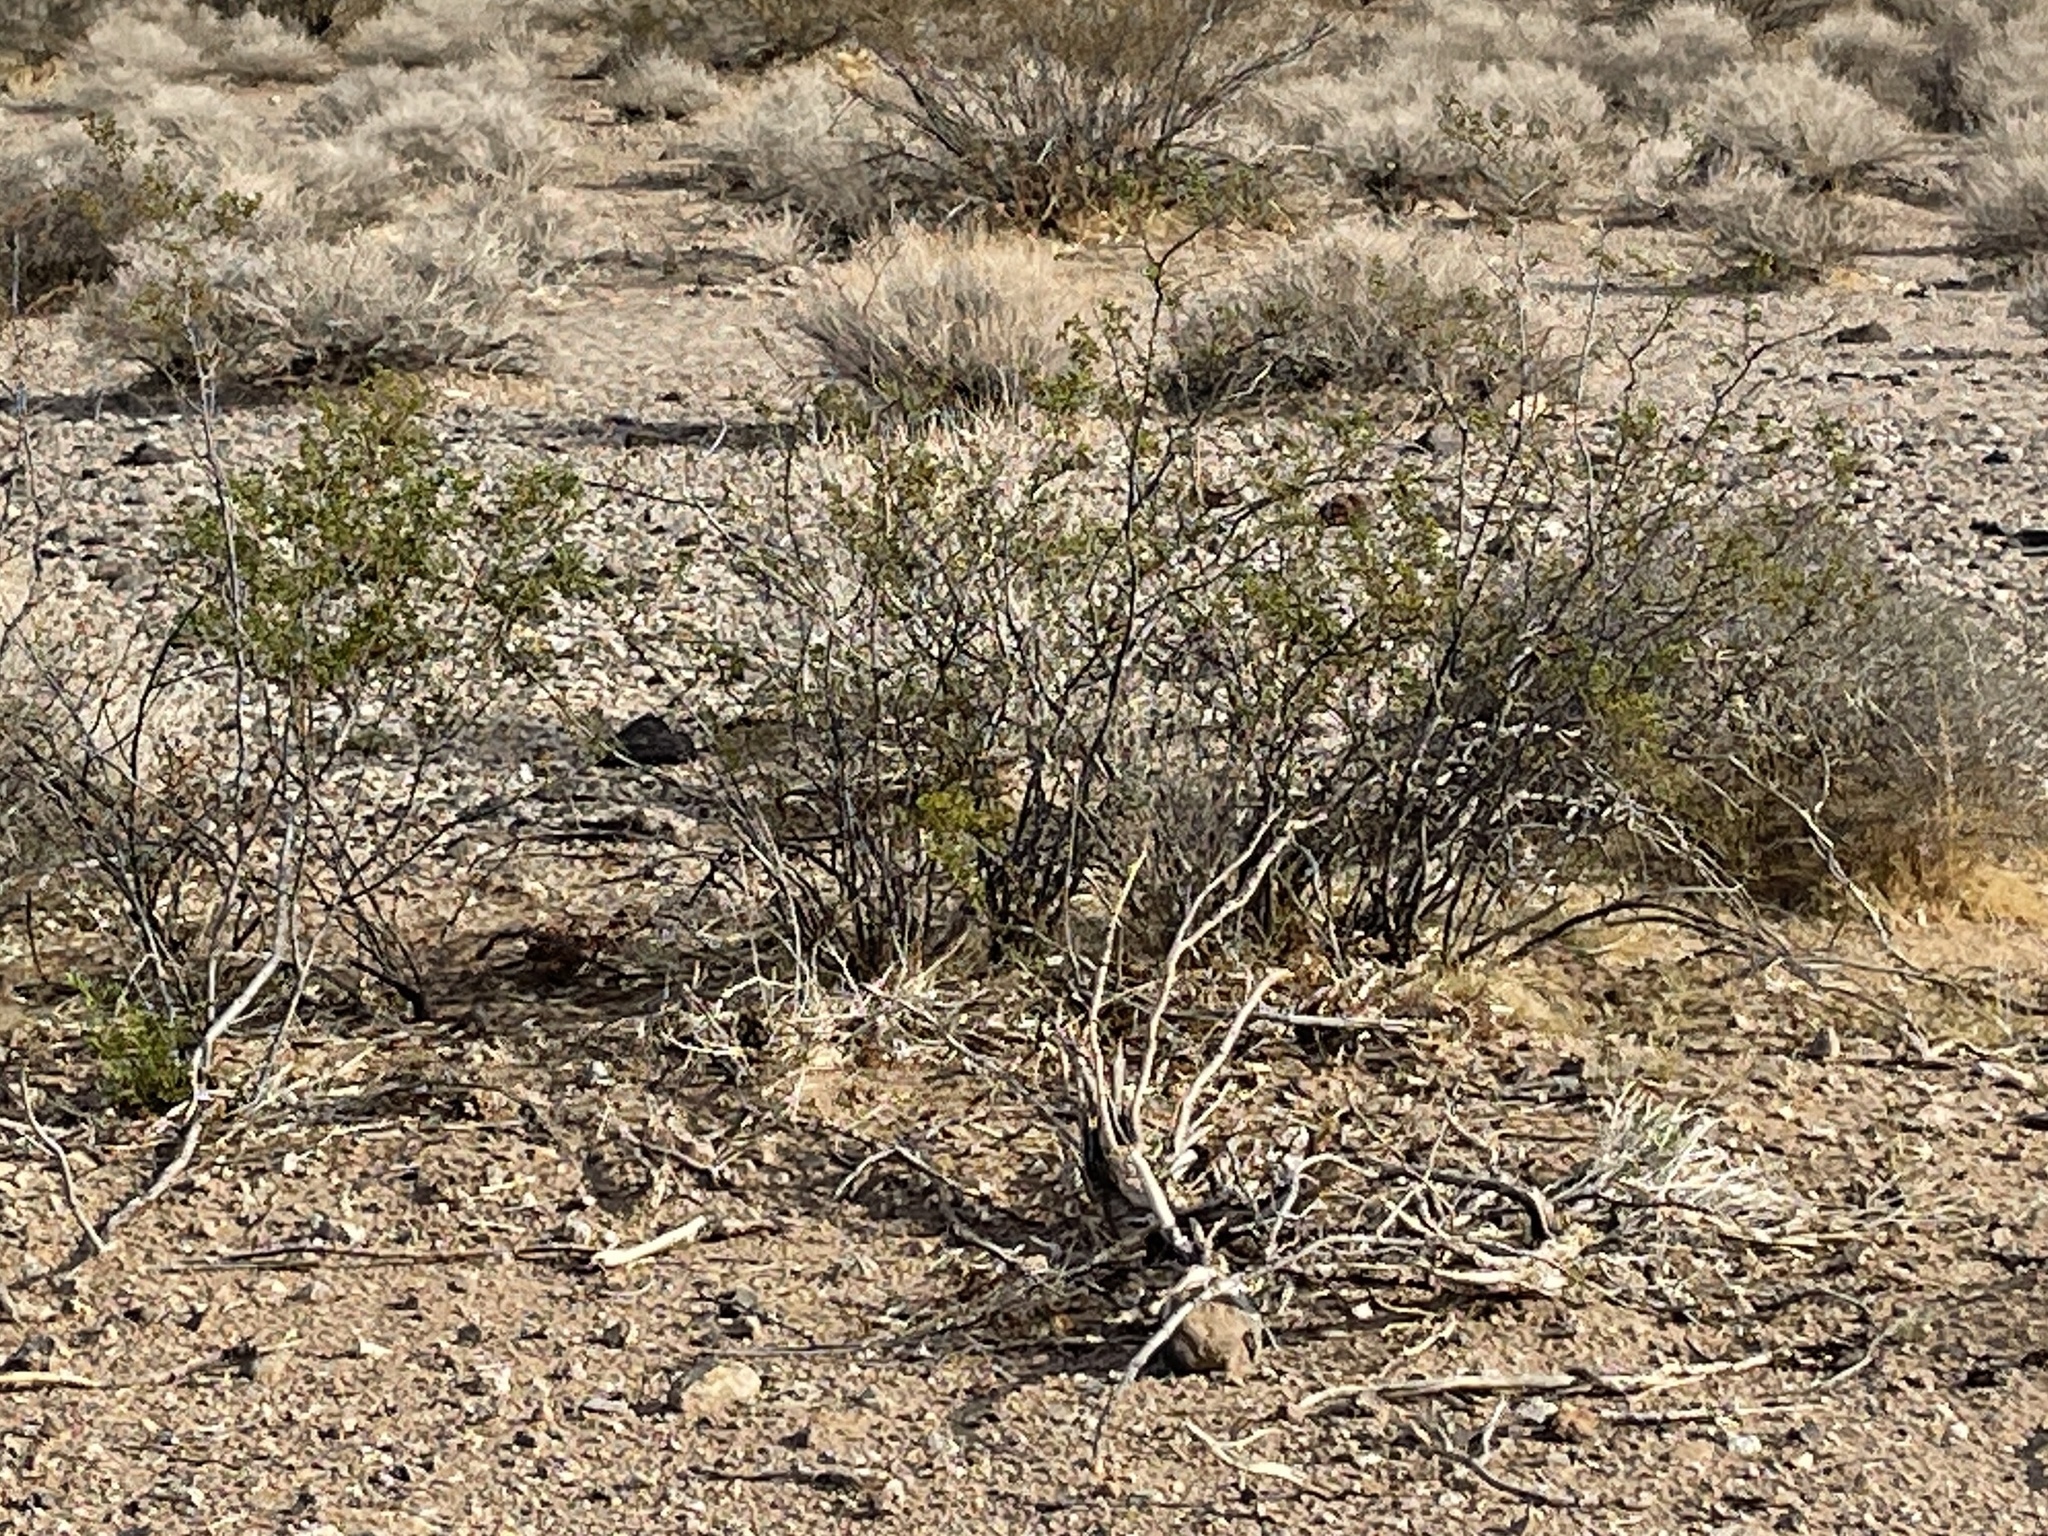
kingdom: Plantae
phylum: Tracheophyta
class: Magnoliopsida
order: Zygophyllales
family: Zygophyllaceae
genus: Larrea
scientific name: Larrea tridentata
